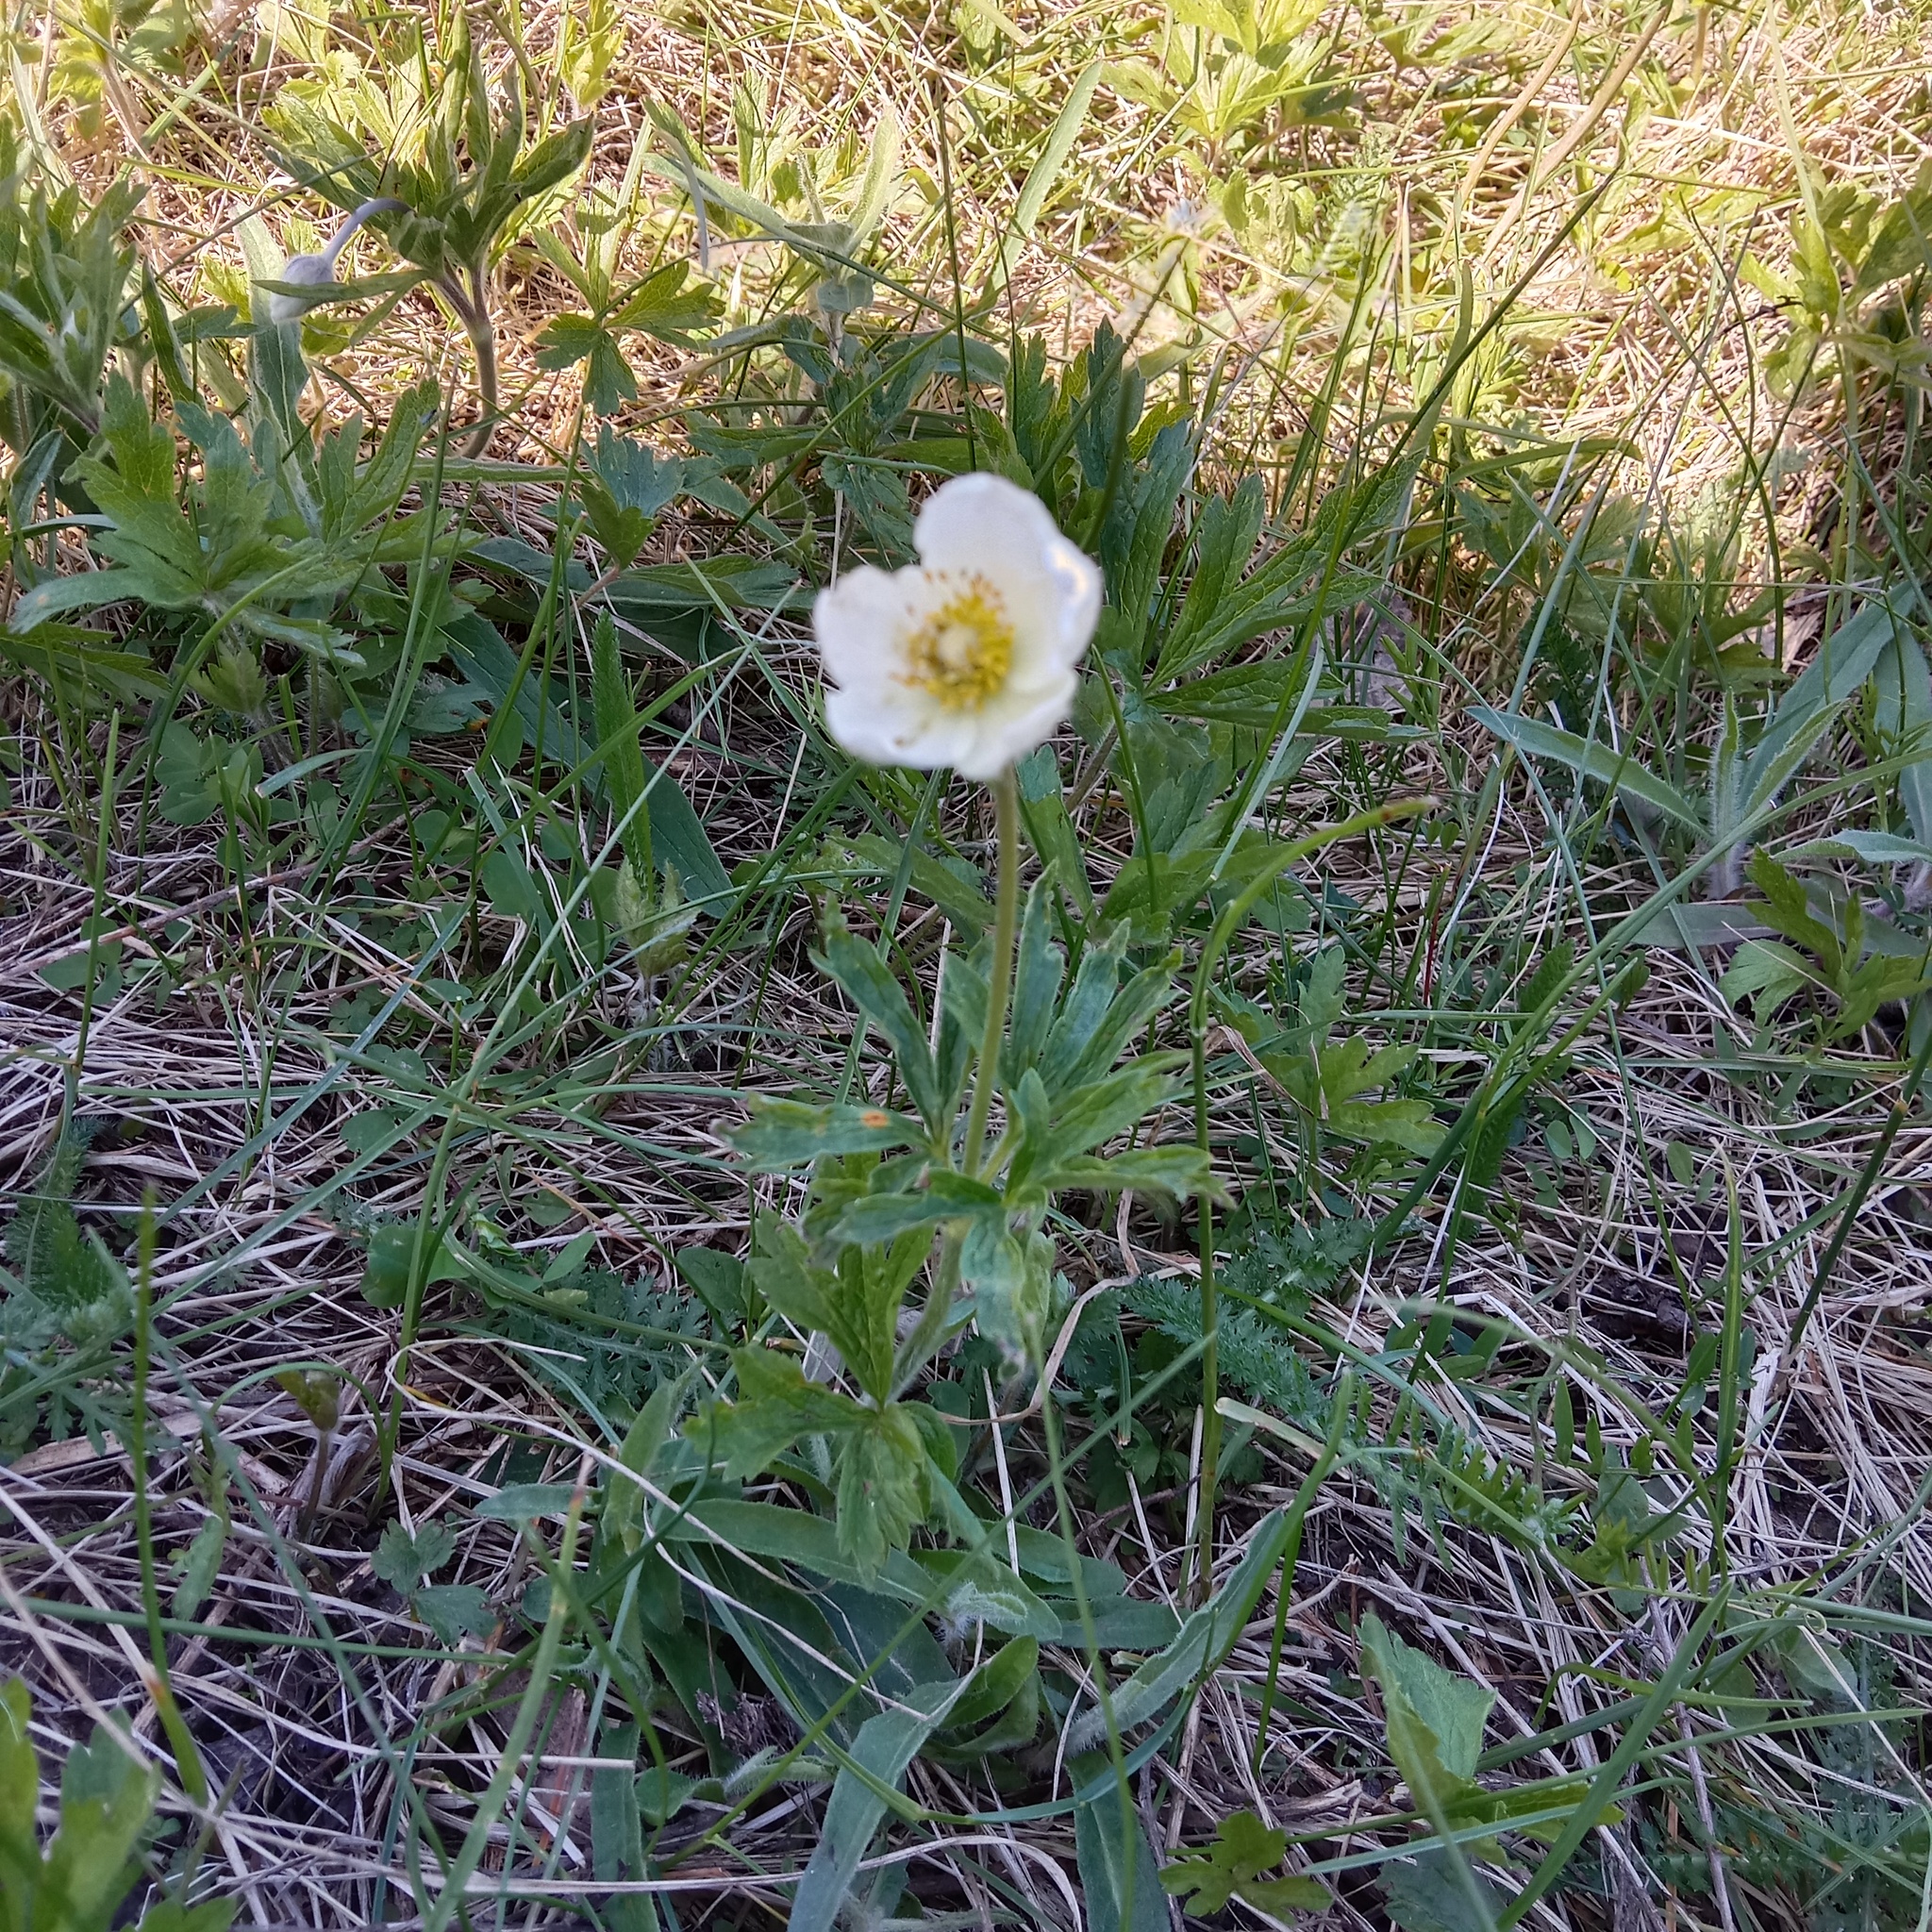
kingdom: Plantae
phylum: Tracheophyta
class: Magnoliopsida
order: Ranunculales
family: Ranunculaceae
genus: Anemone
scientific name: Anemone sylvestris
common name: Snowdrop anemone
